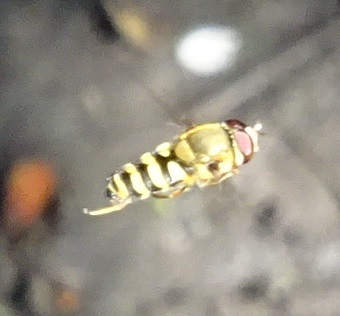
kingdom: Animalia
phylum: Arthropoda
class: Insecta
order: Diptera
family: Syrphidae
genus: Syrphus
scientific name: Syrphus
